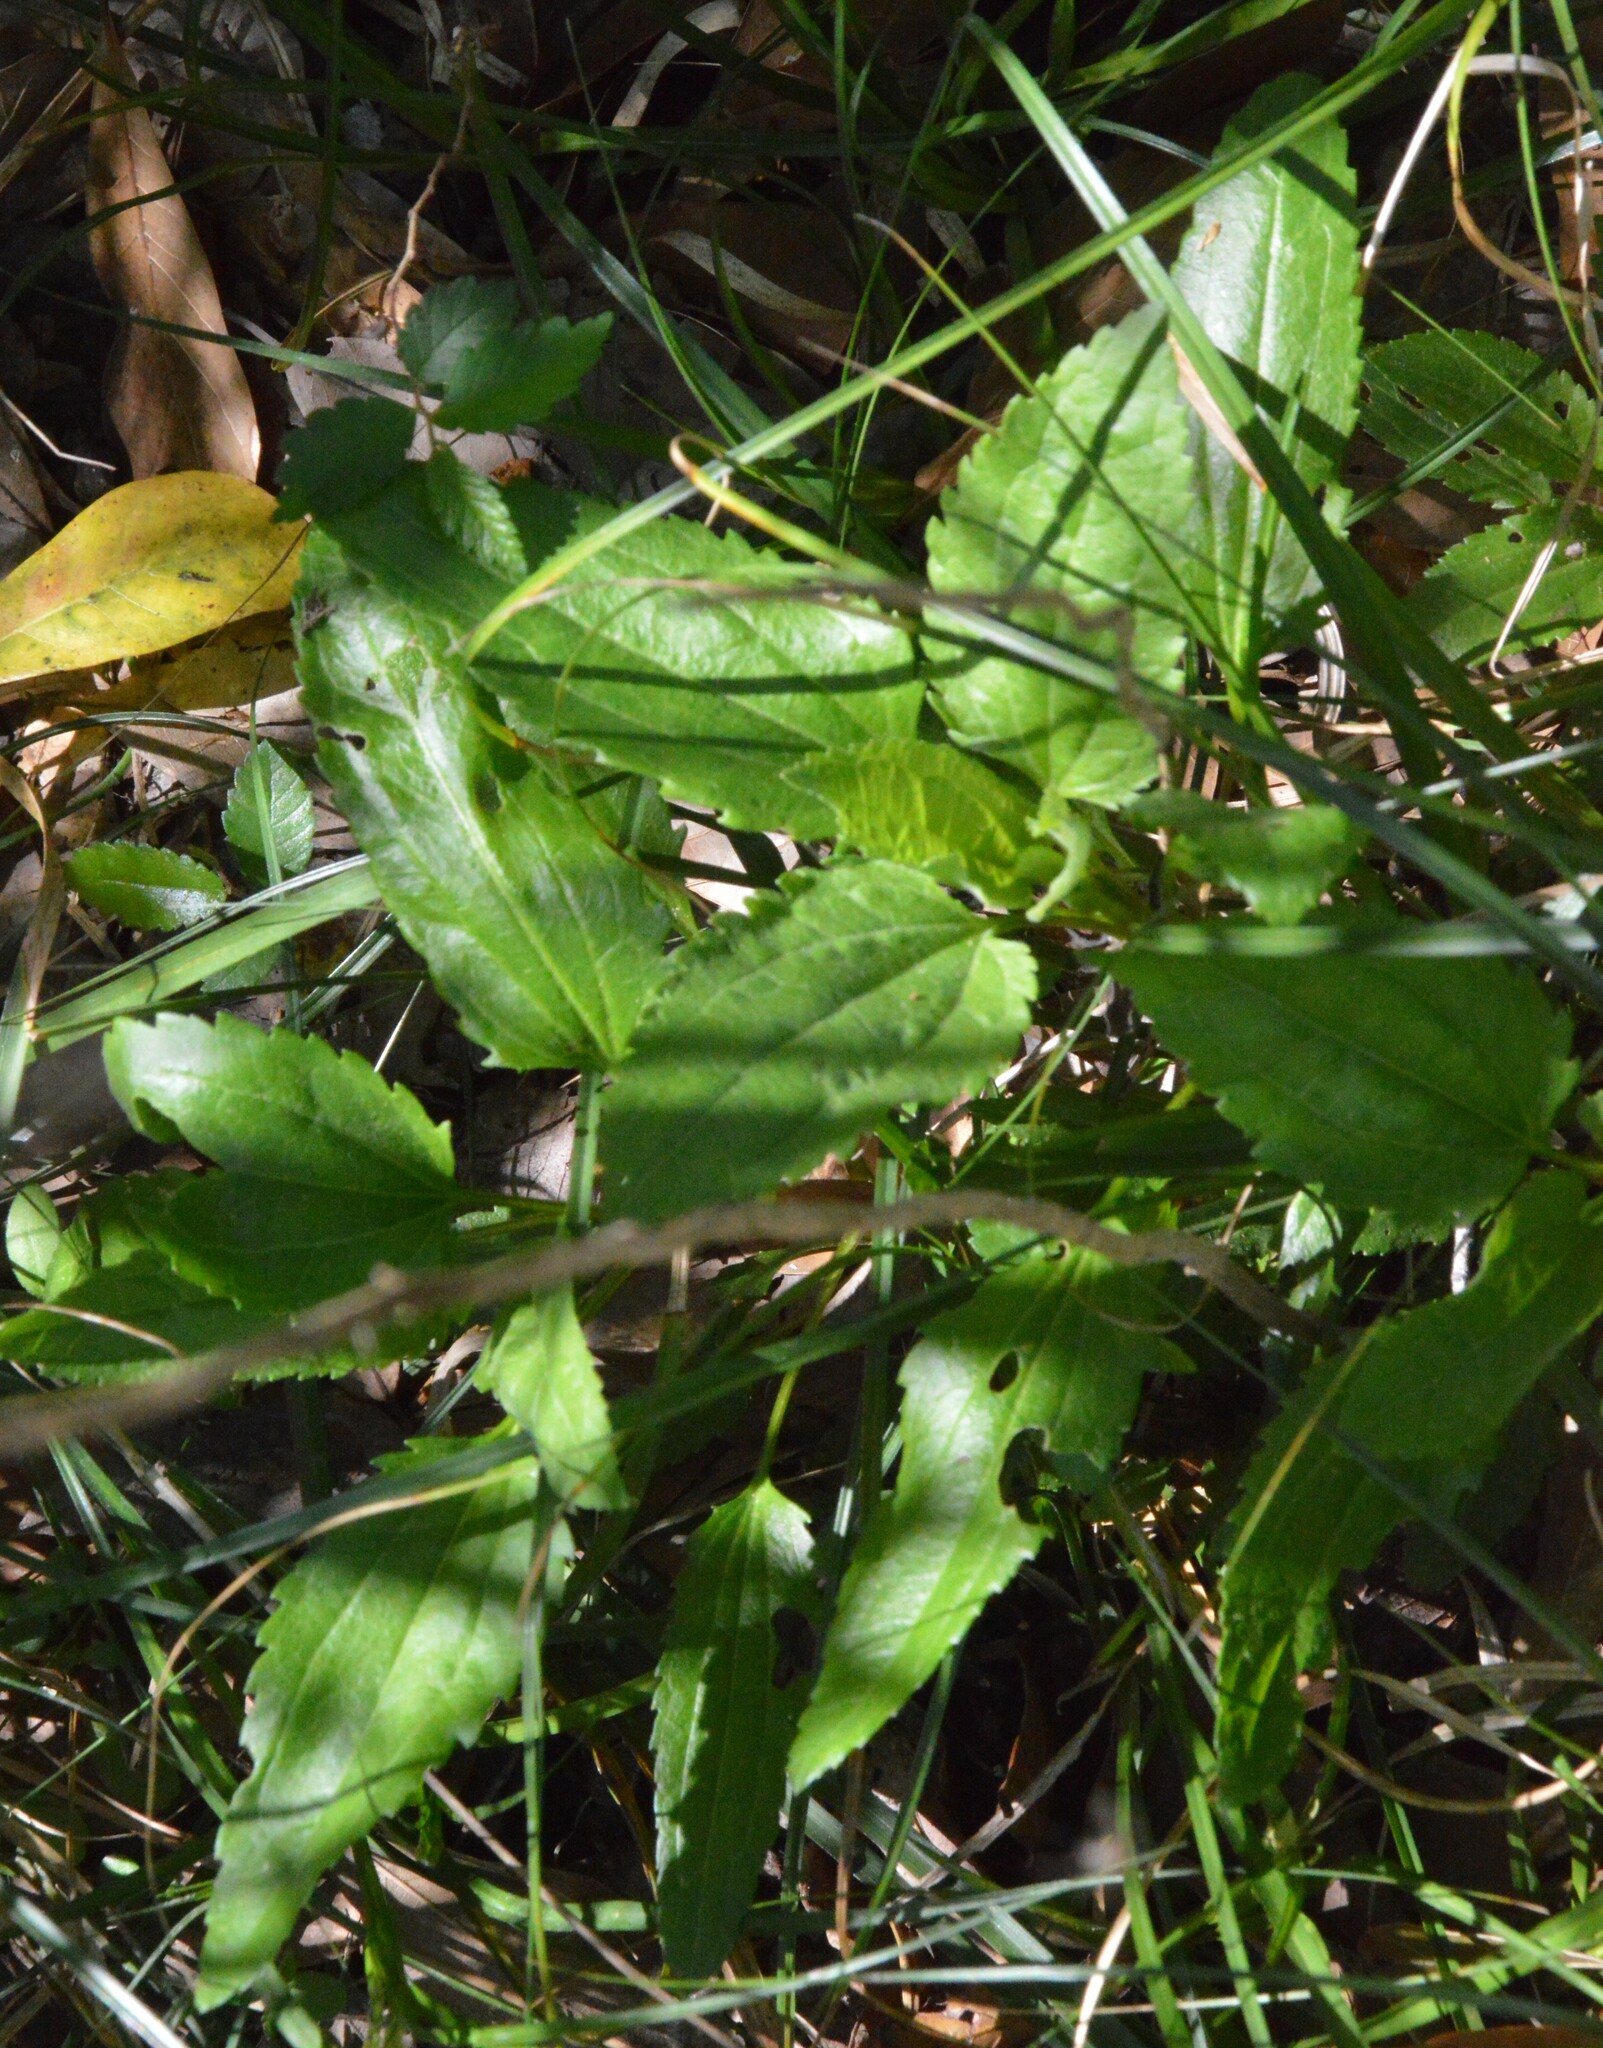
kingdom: Plantae
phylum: Tracheophyta
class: Magnoliopsida
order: Asterales
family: Asteraceae
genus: Eupatorium
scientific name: Eupatorium serotinum
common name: Late boneset
